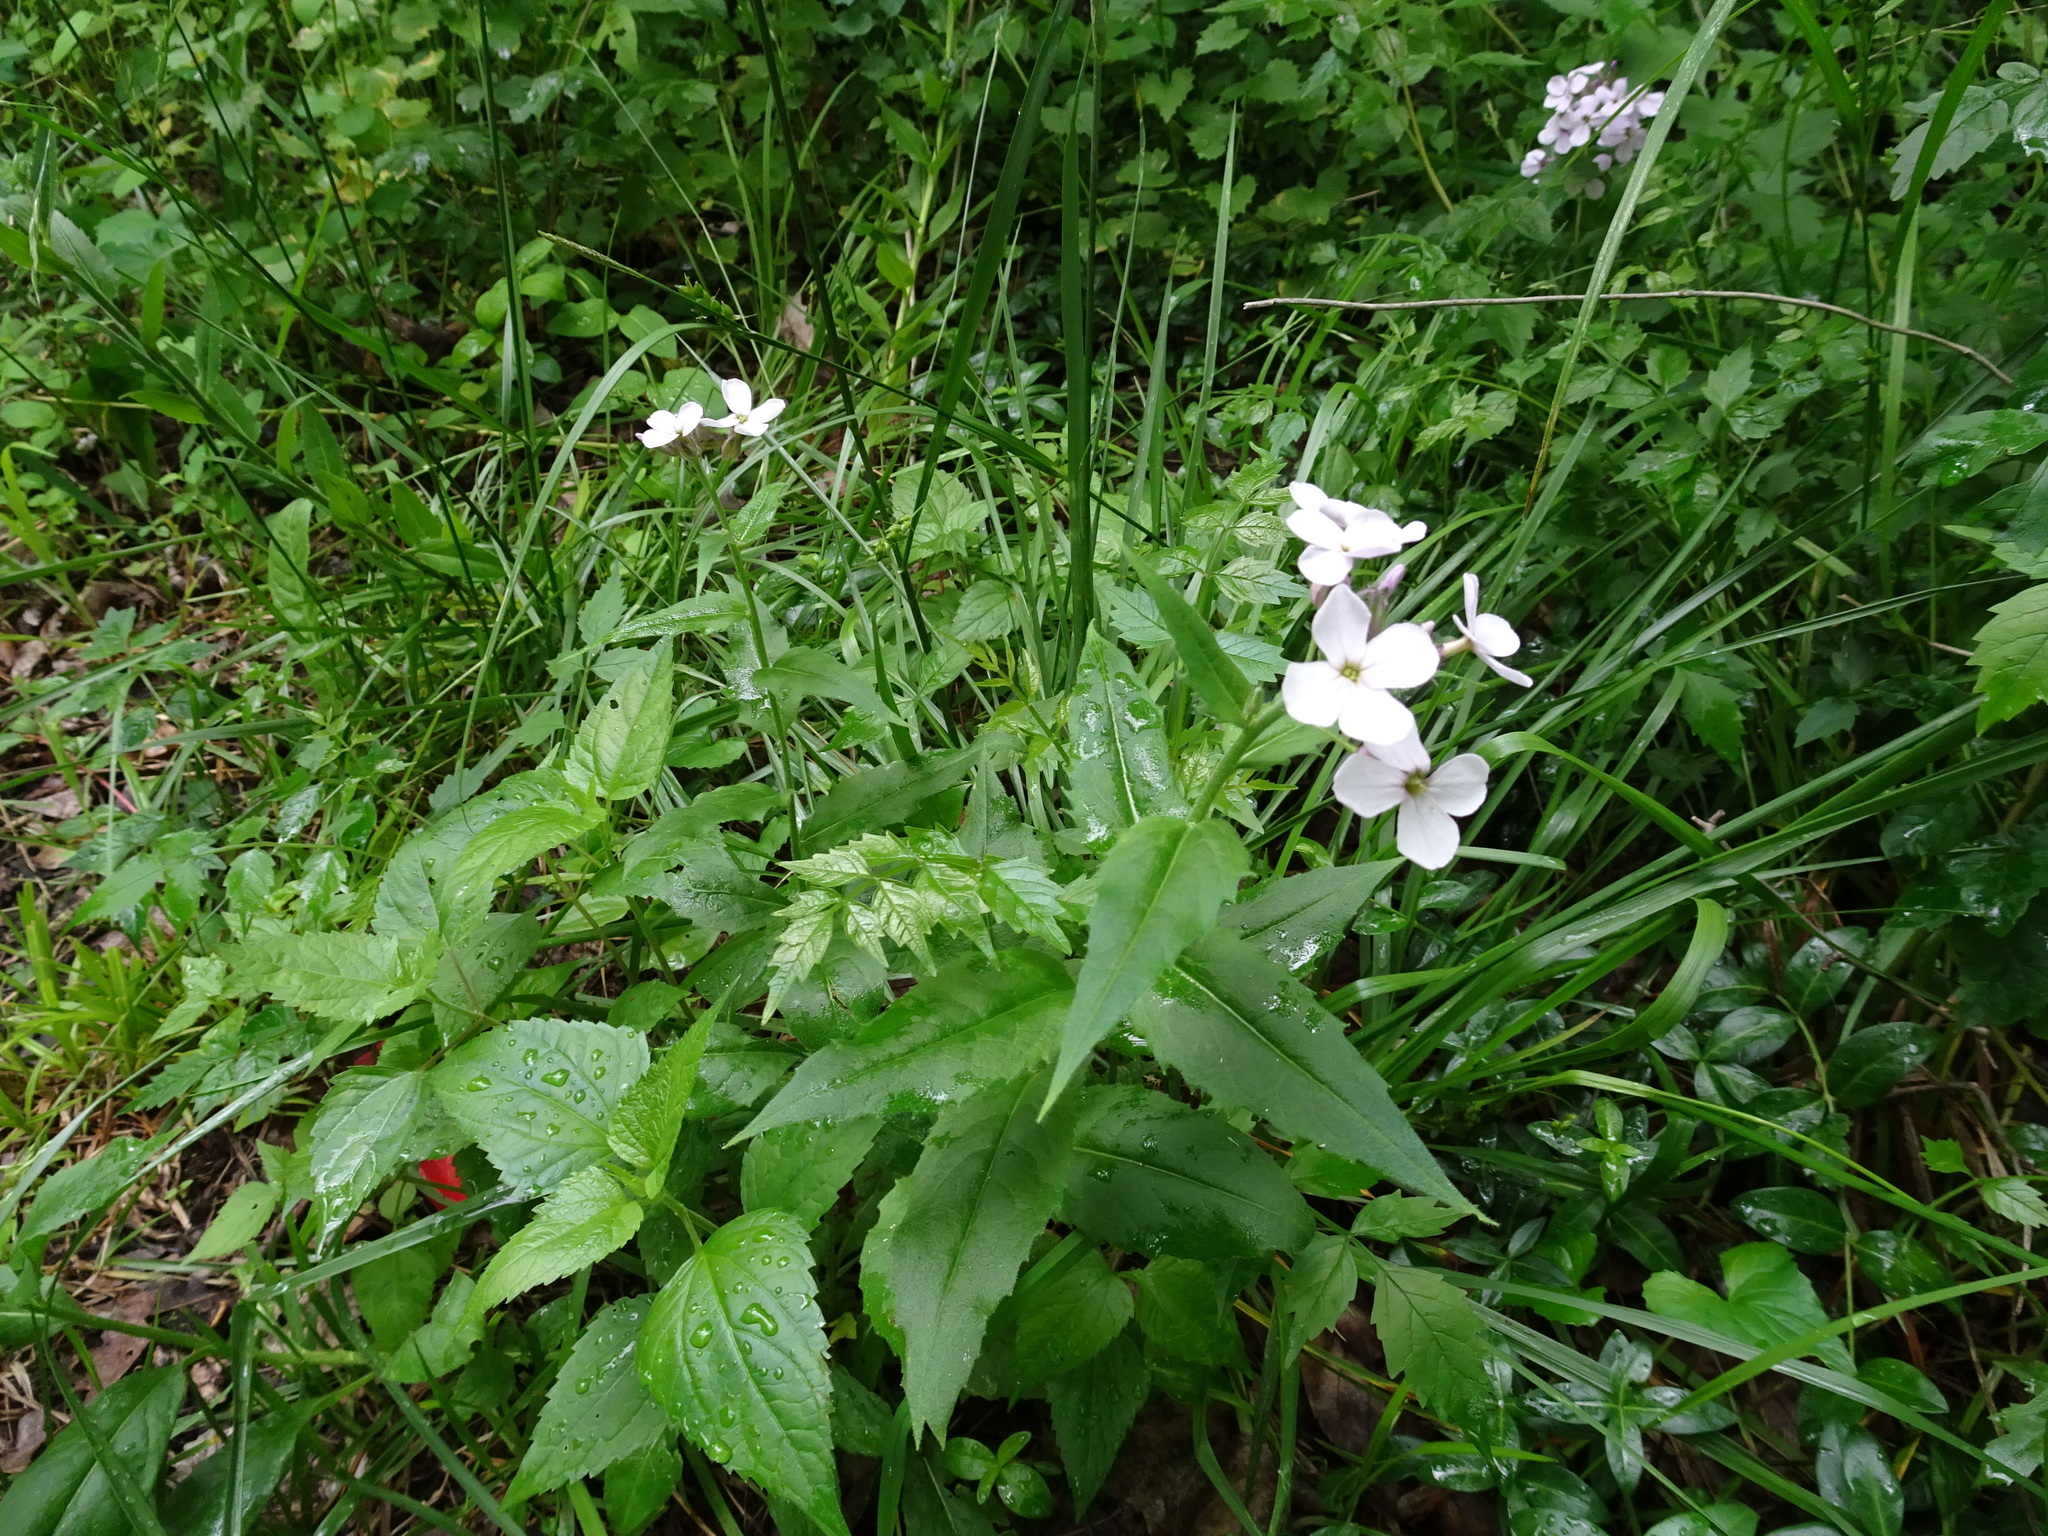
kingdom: Plantae
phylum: Tracheophyta
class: Magnoliopsida
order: Brassicales
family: Brassicaceae
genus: Hesperis
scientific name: Hesperis matronalis
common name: Dame's-violet
